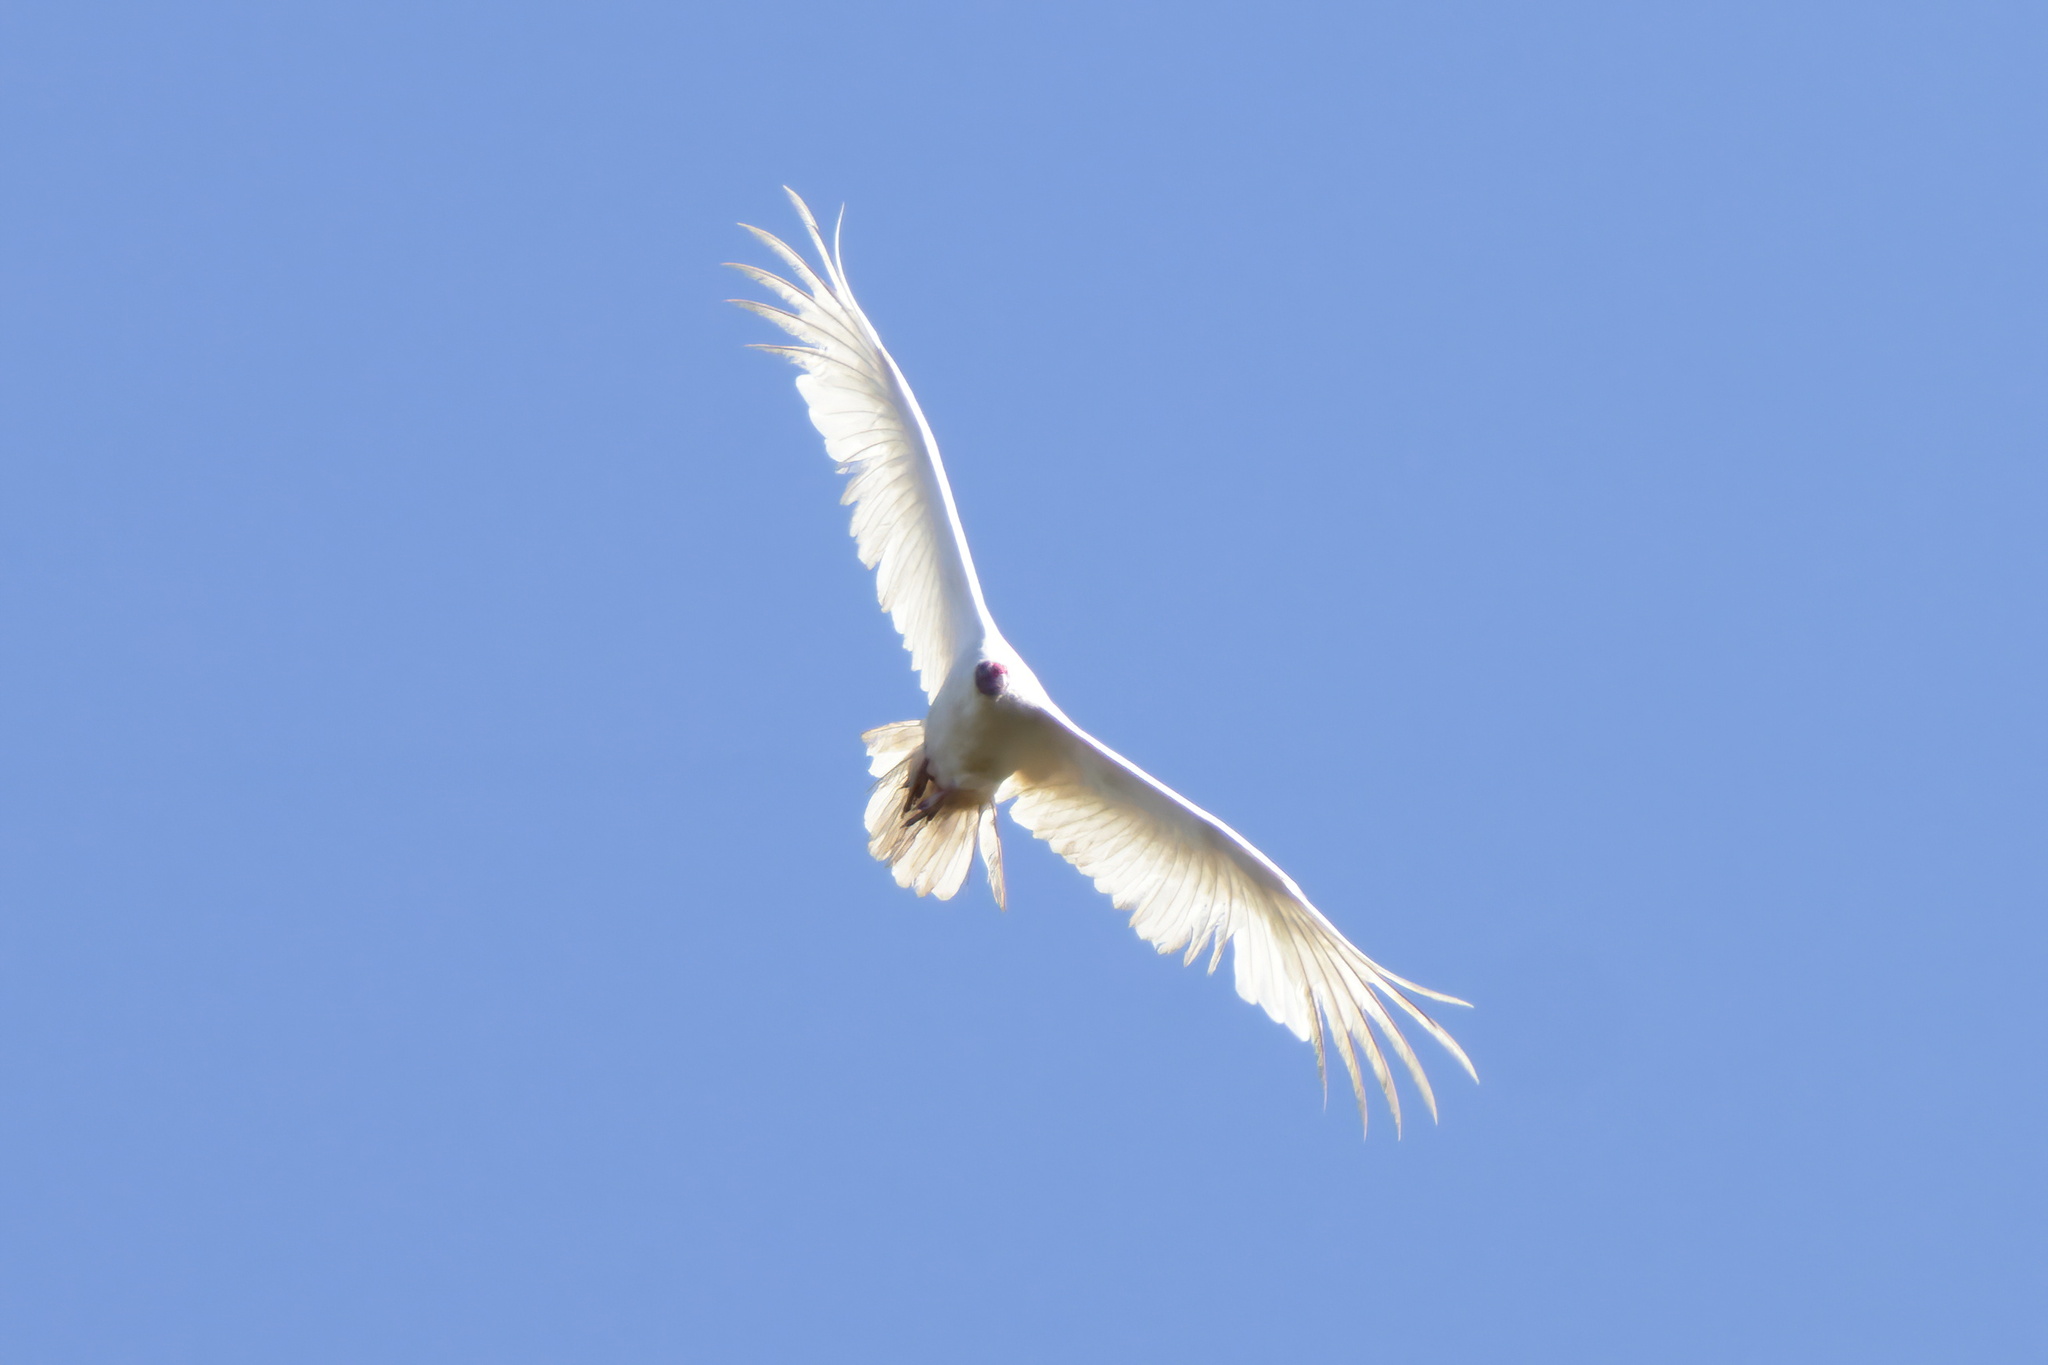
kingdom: Animalia
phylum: Chordata
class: Aves
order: Accipitriformes
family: Cathartidae
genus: Cathartes
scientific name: Cathartes aura
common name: Turkey vulture
